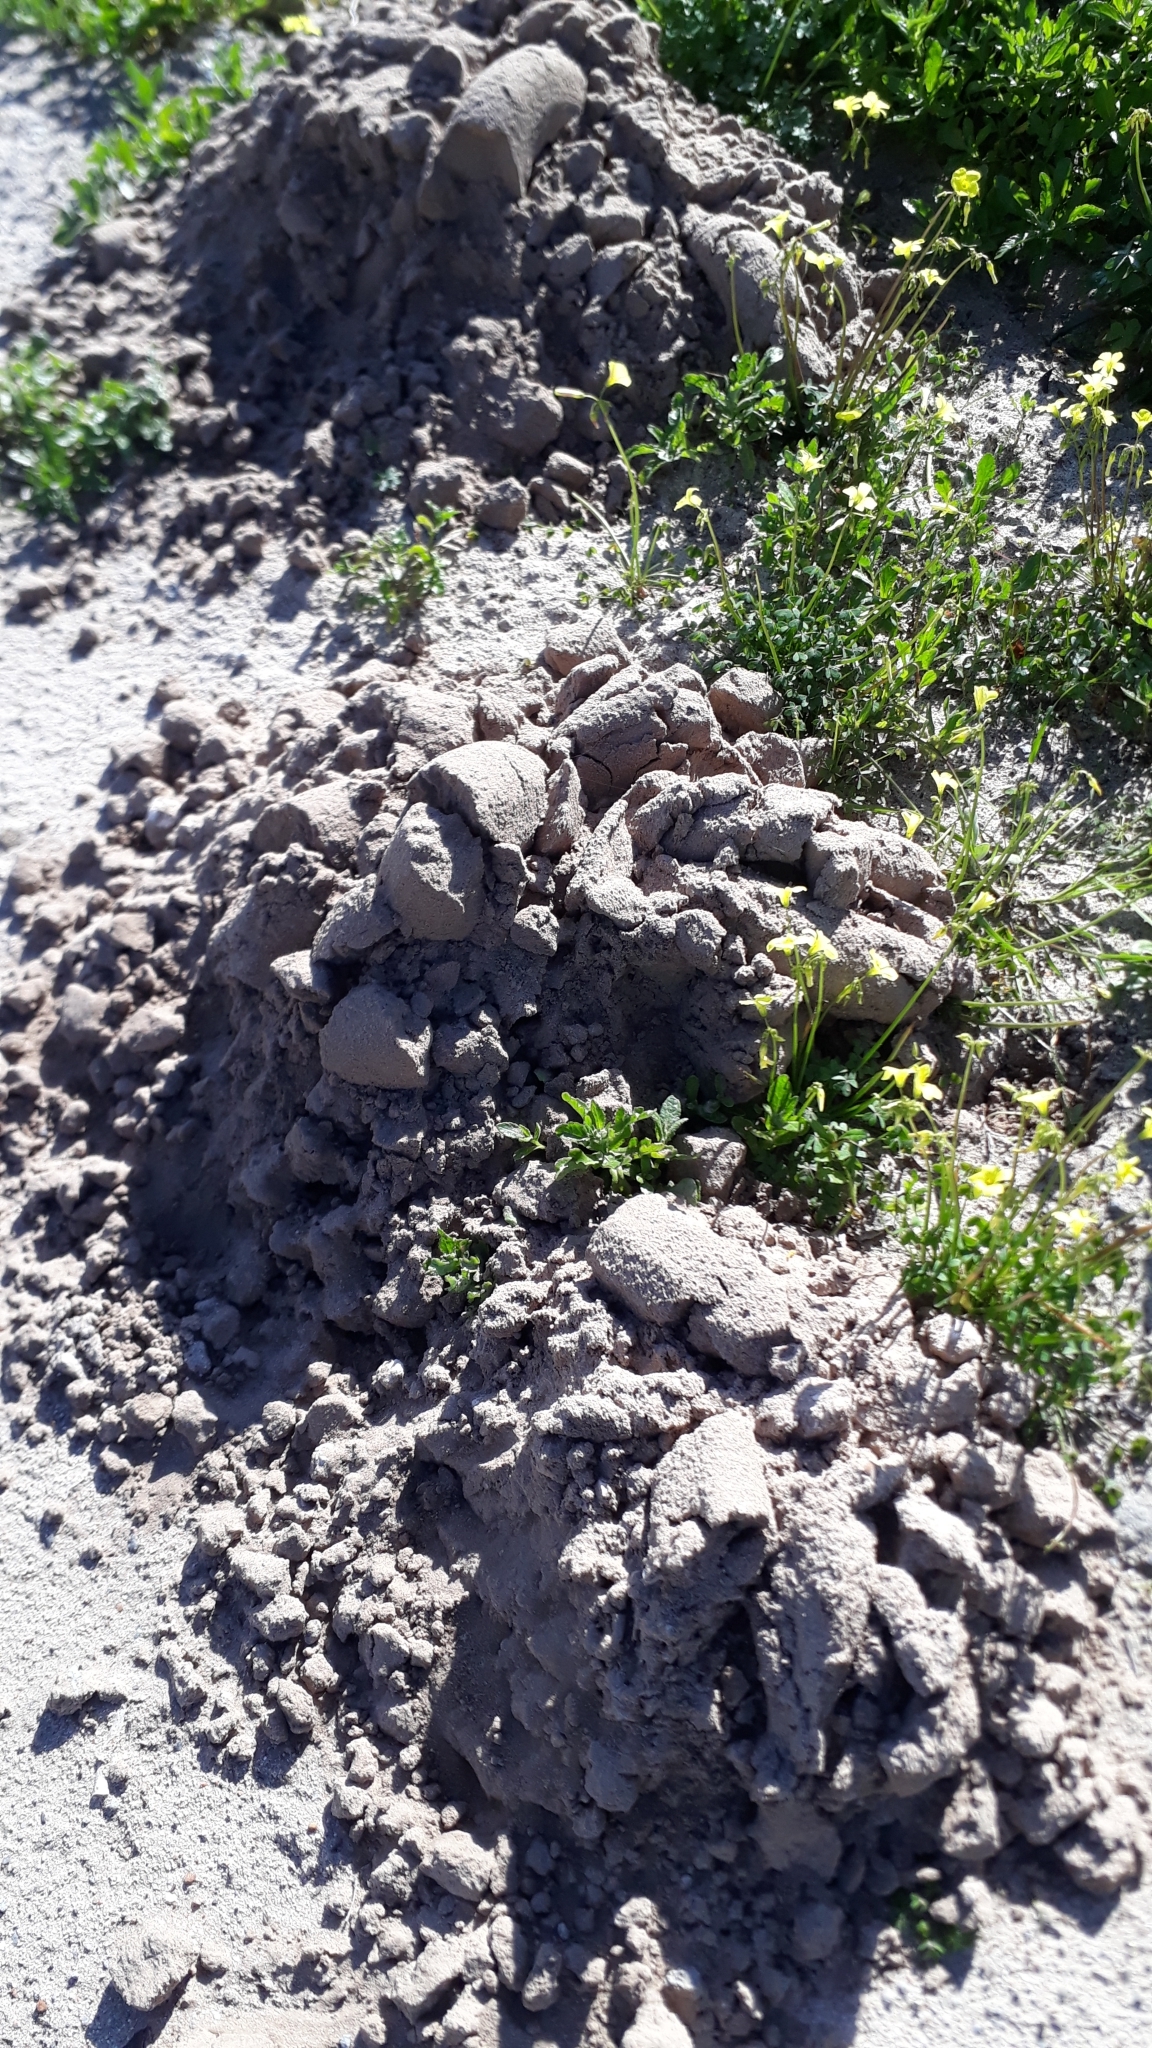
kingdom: Animalia
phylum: Chordata
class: Mammalia
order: Rodentia
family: Bathyergidae
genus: Bathyergus
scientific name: Bathyergus suillus
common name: Cape dune mole rat
